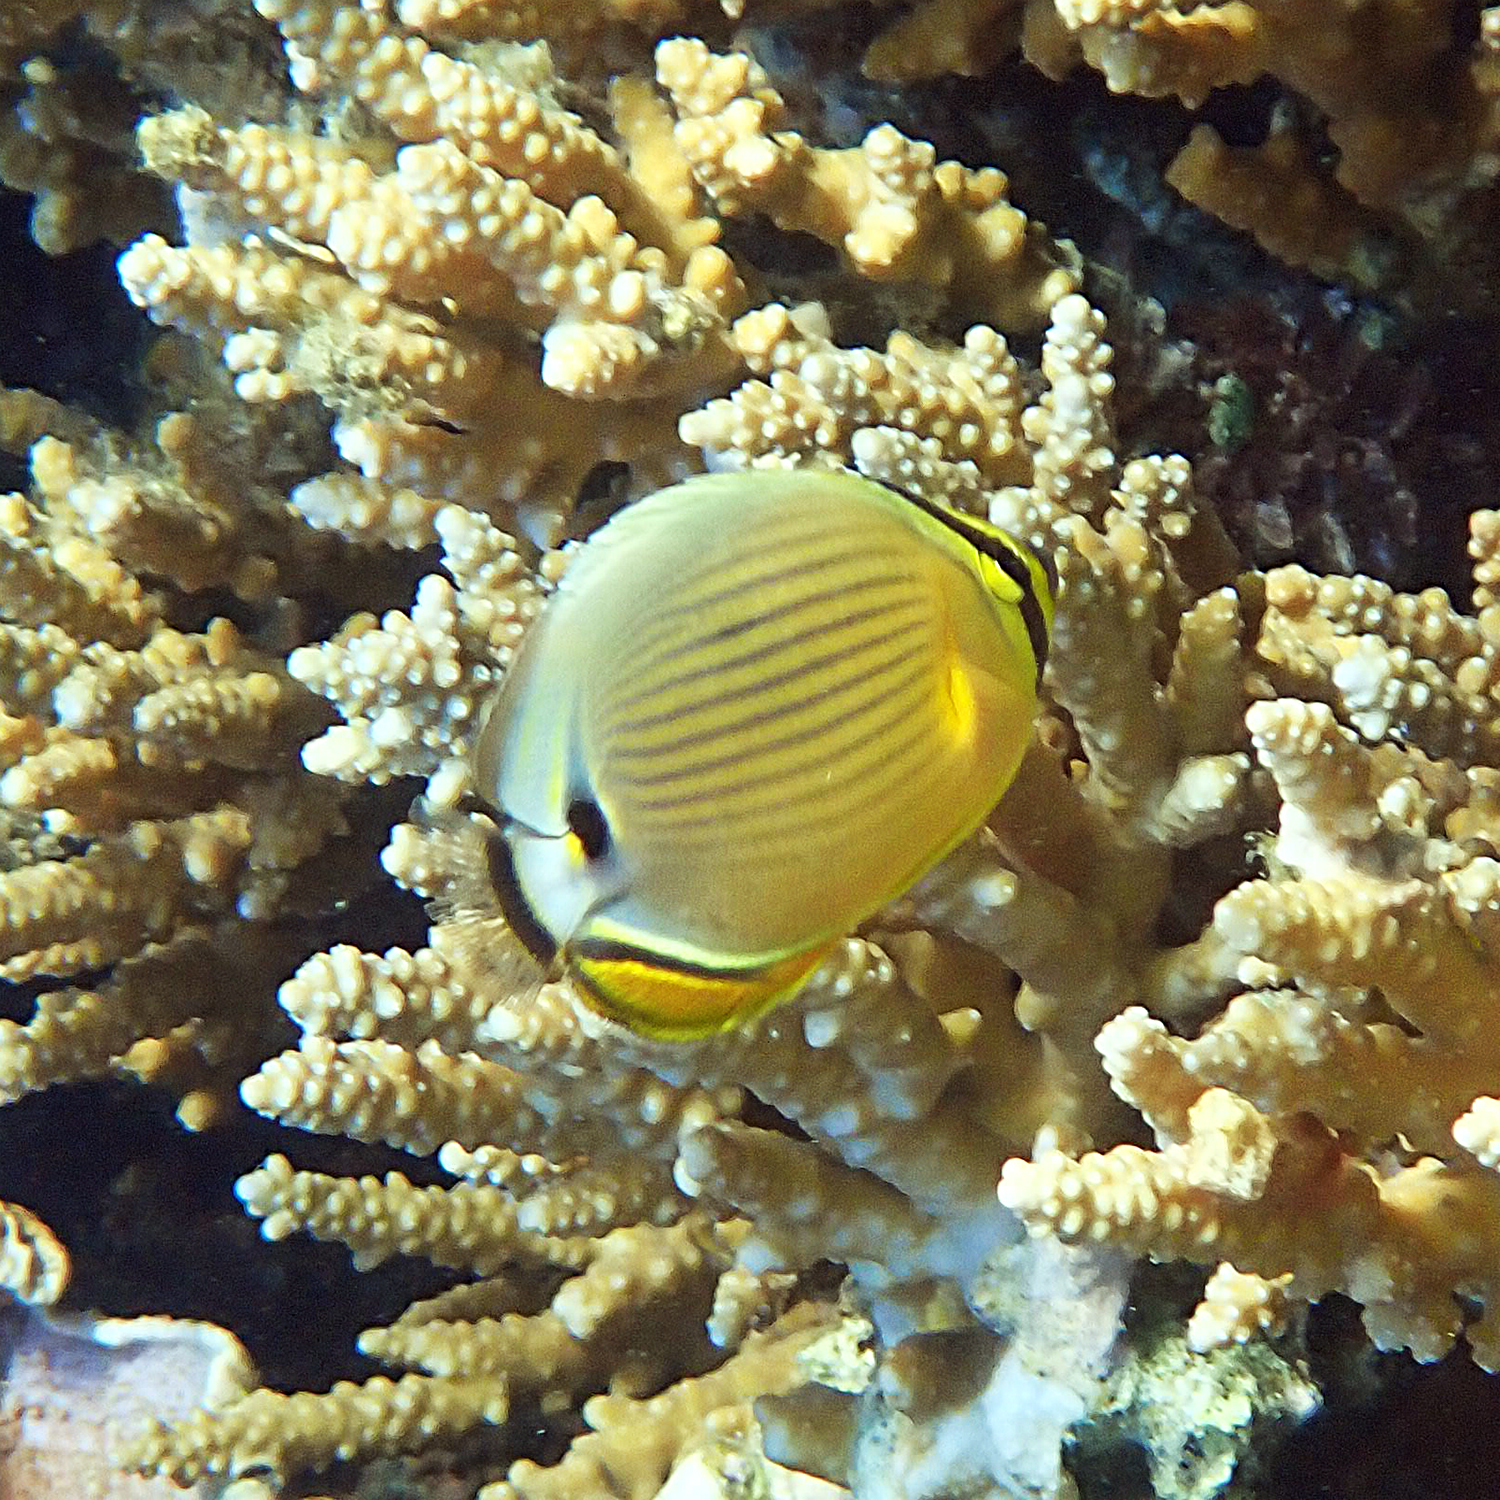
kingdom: Animalia
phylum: Chordata
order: Perciformes
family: Chaetodontidae
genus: Chaetodon
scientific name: Chaetodon lunulatus
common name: Redfin butterflyfish
